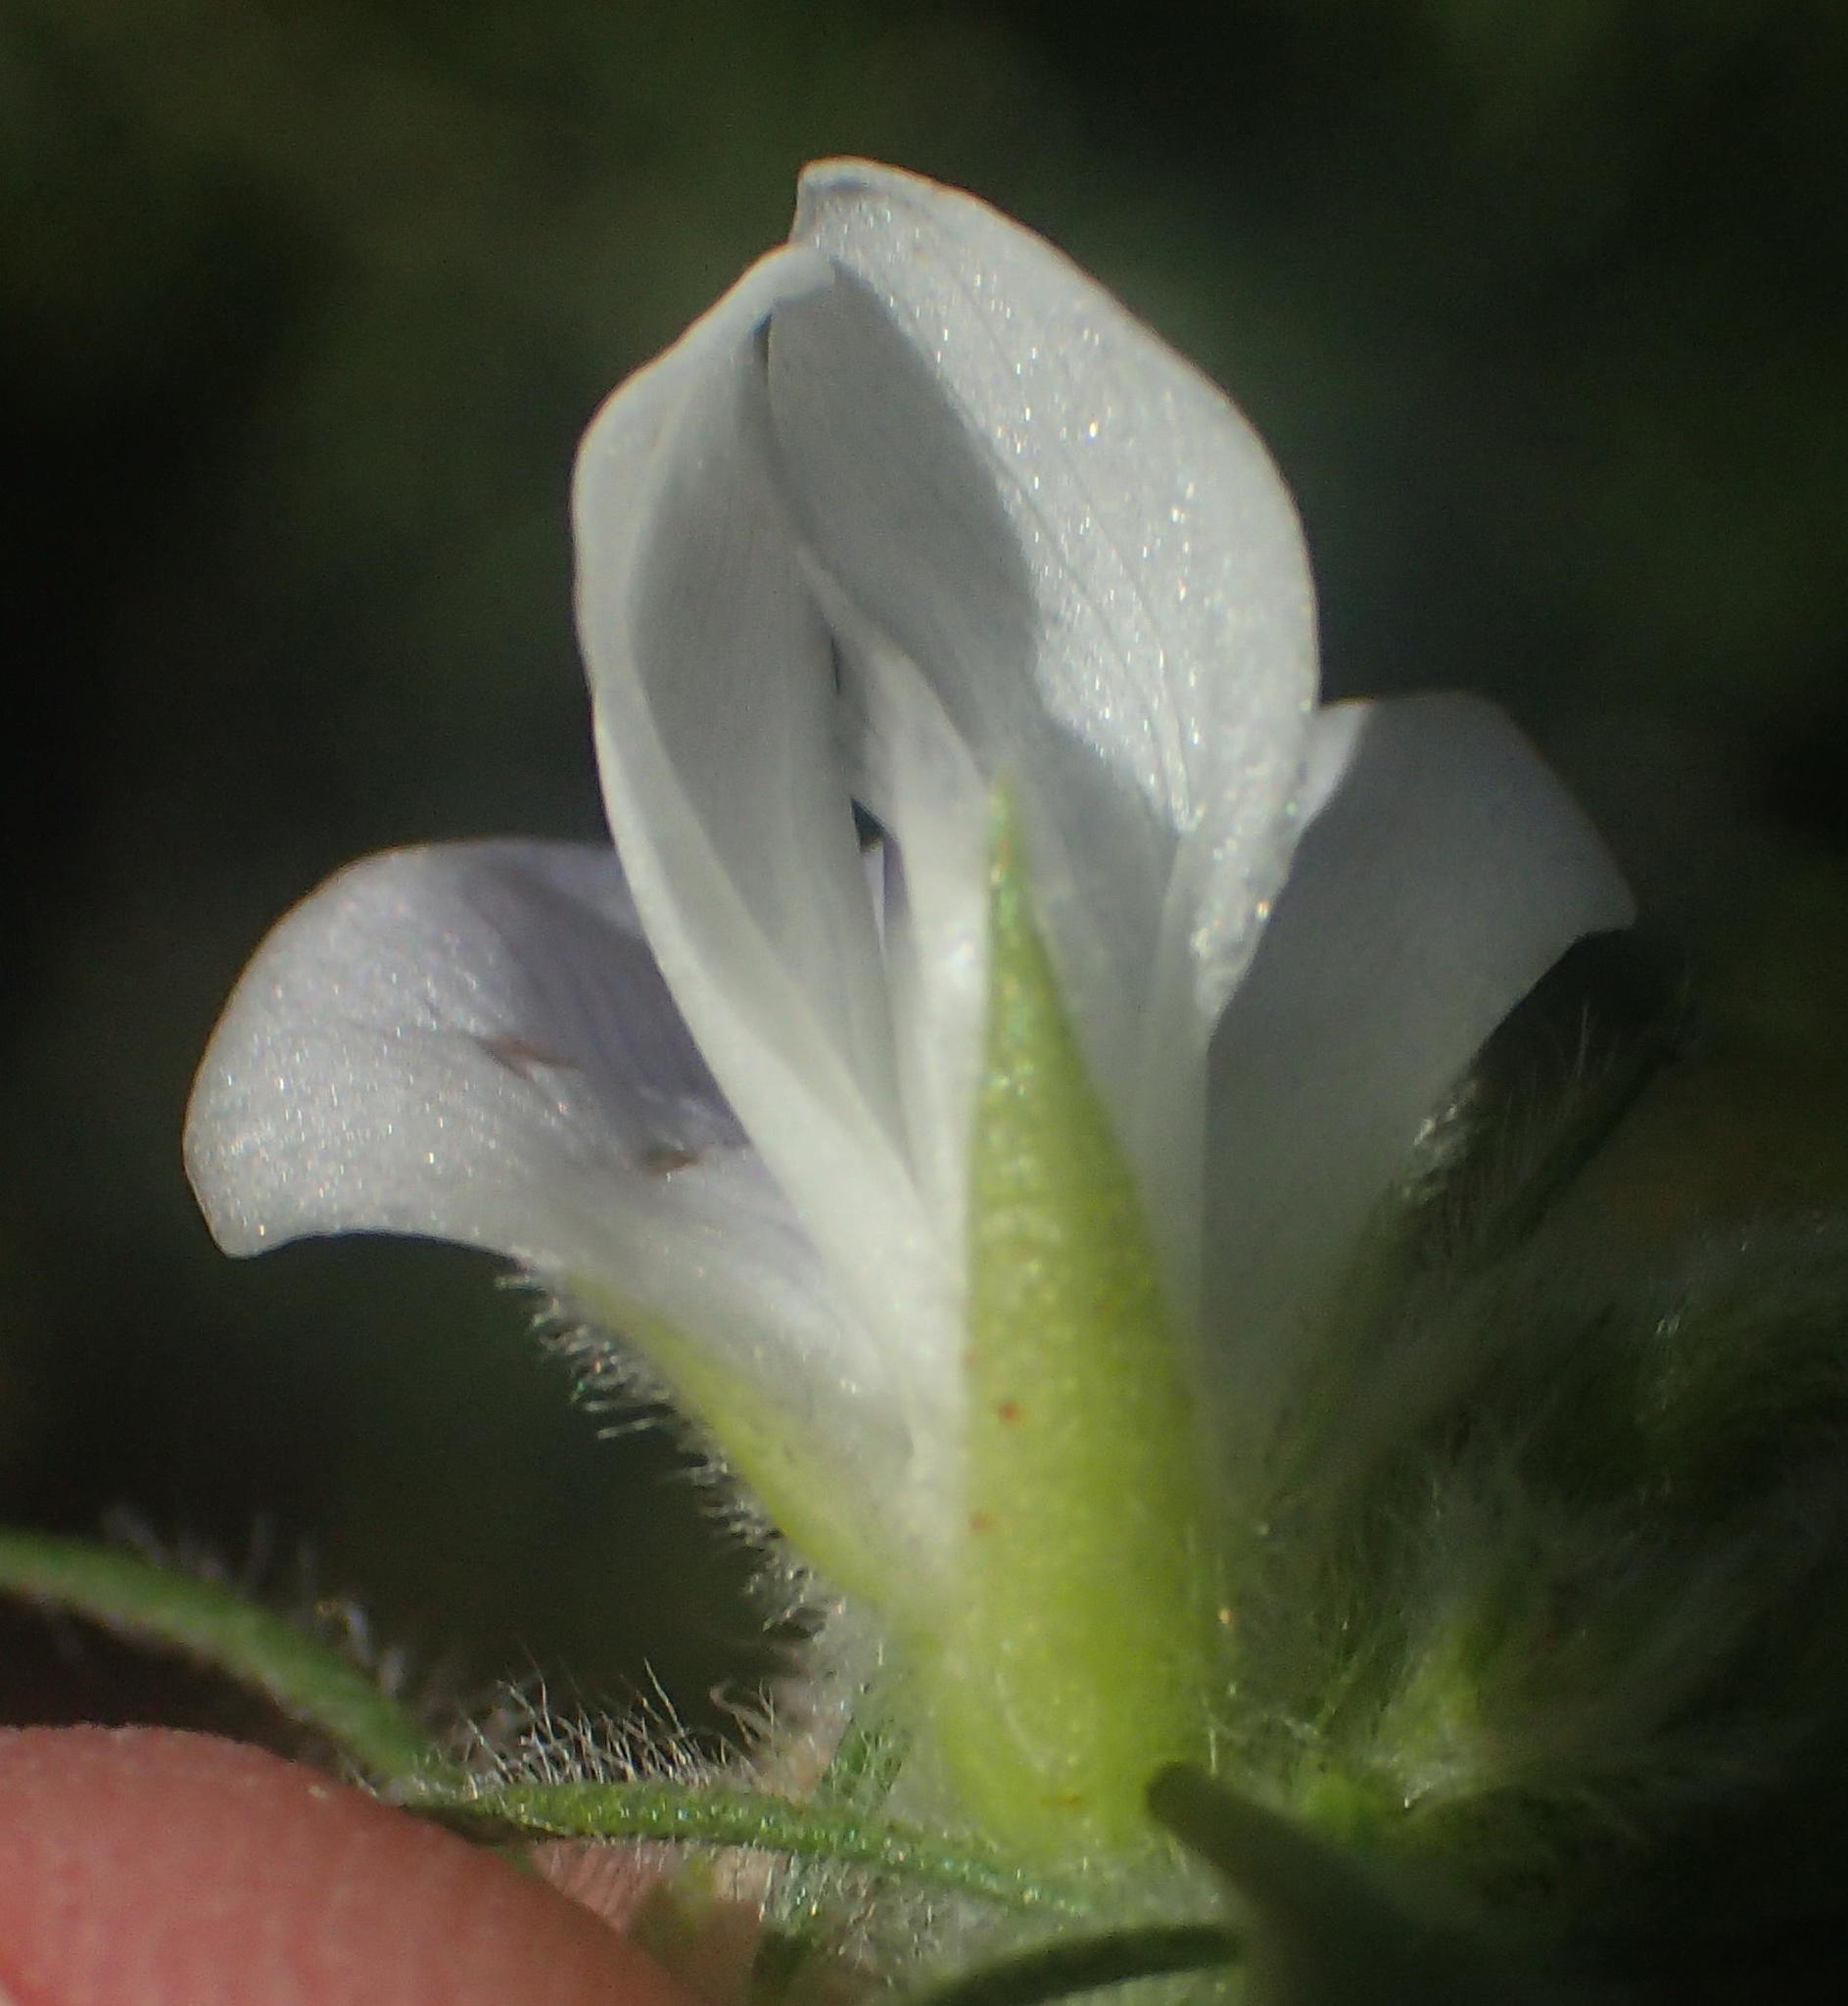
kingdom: Plantae
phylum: Tracheophyta
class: Magnoliopsida
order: Fabales
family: Fabaceae
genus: Psoralea
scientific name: Psoralea floccosa
